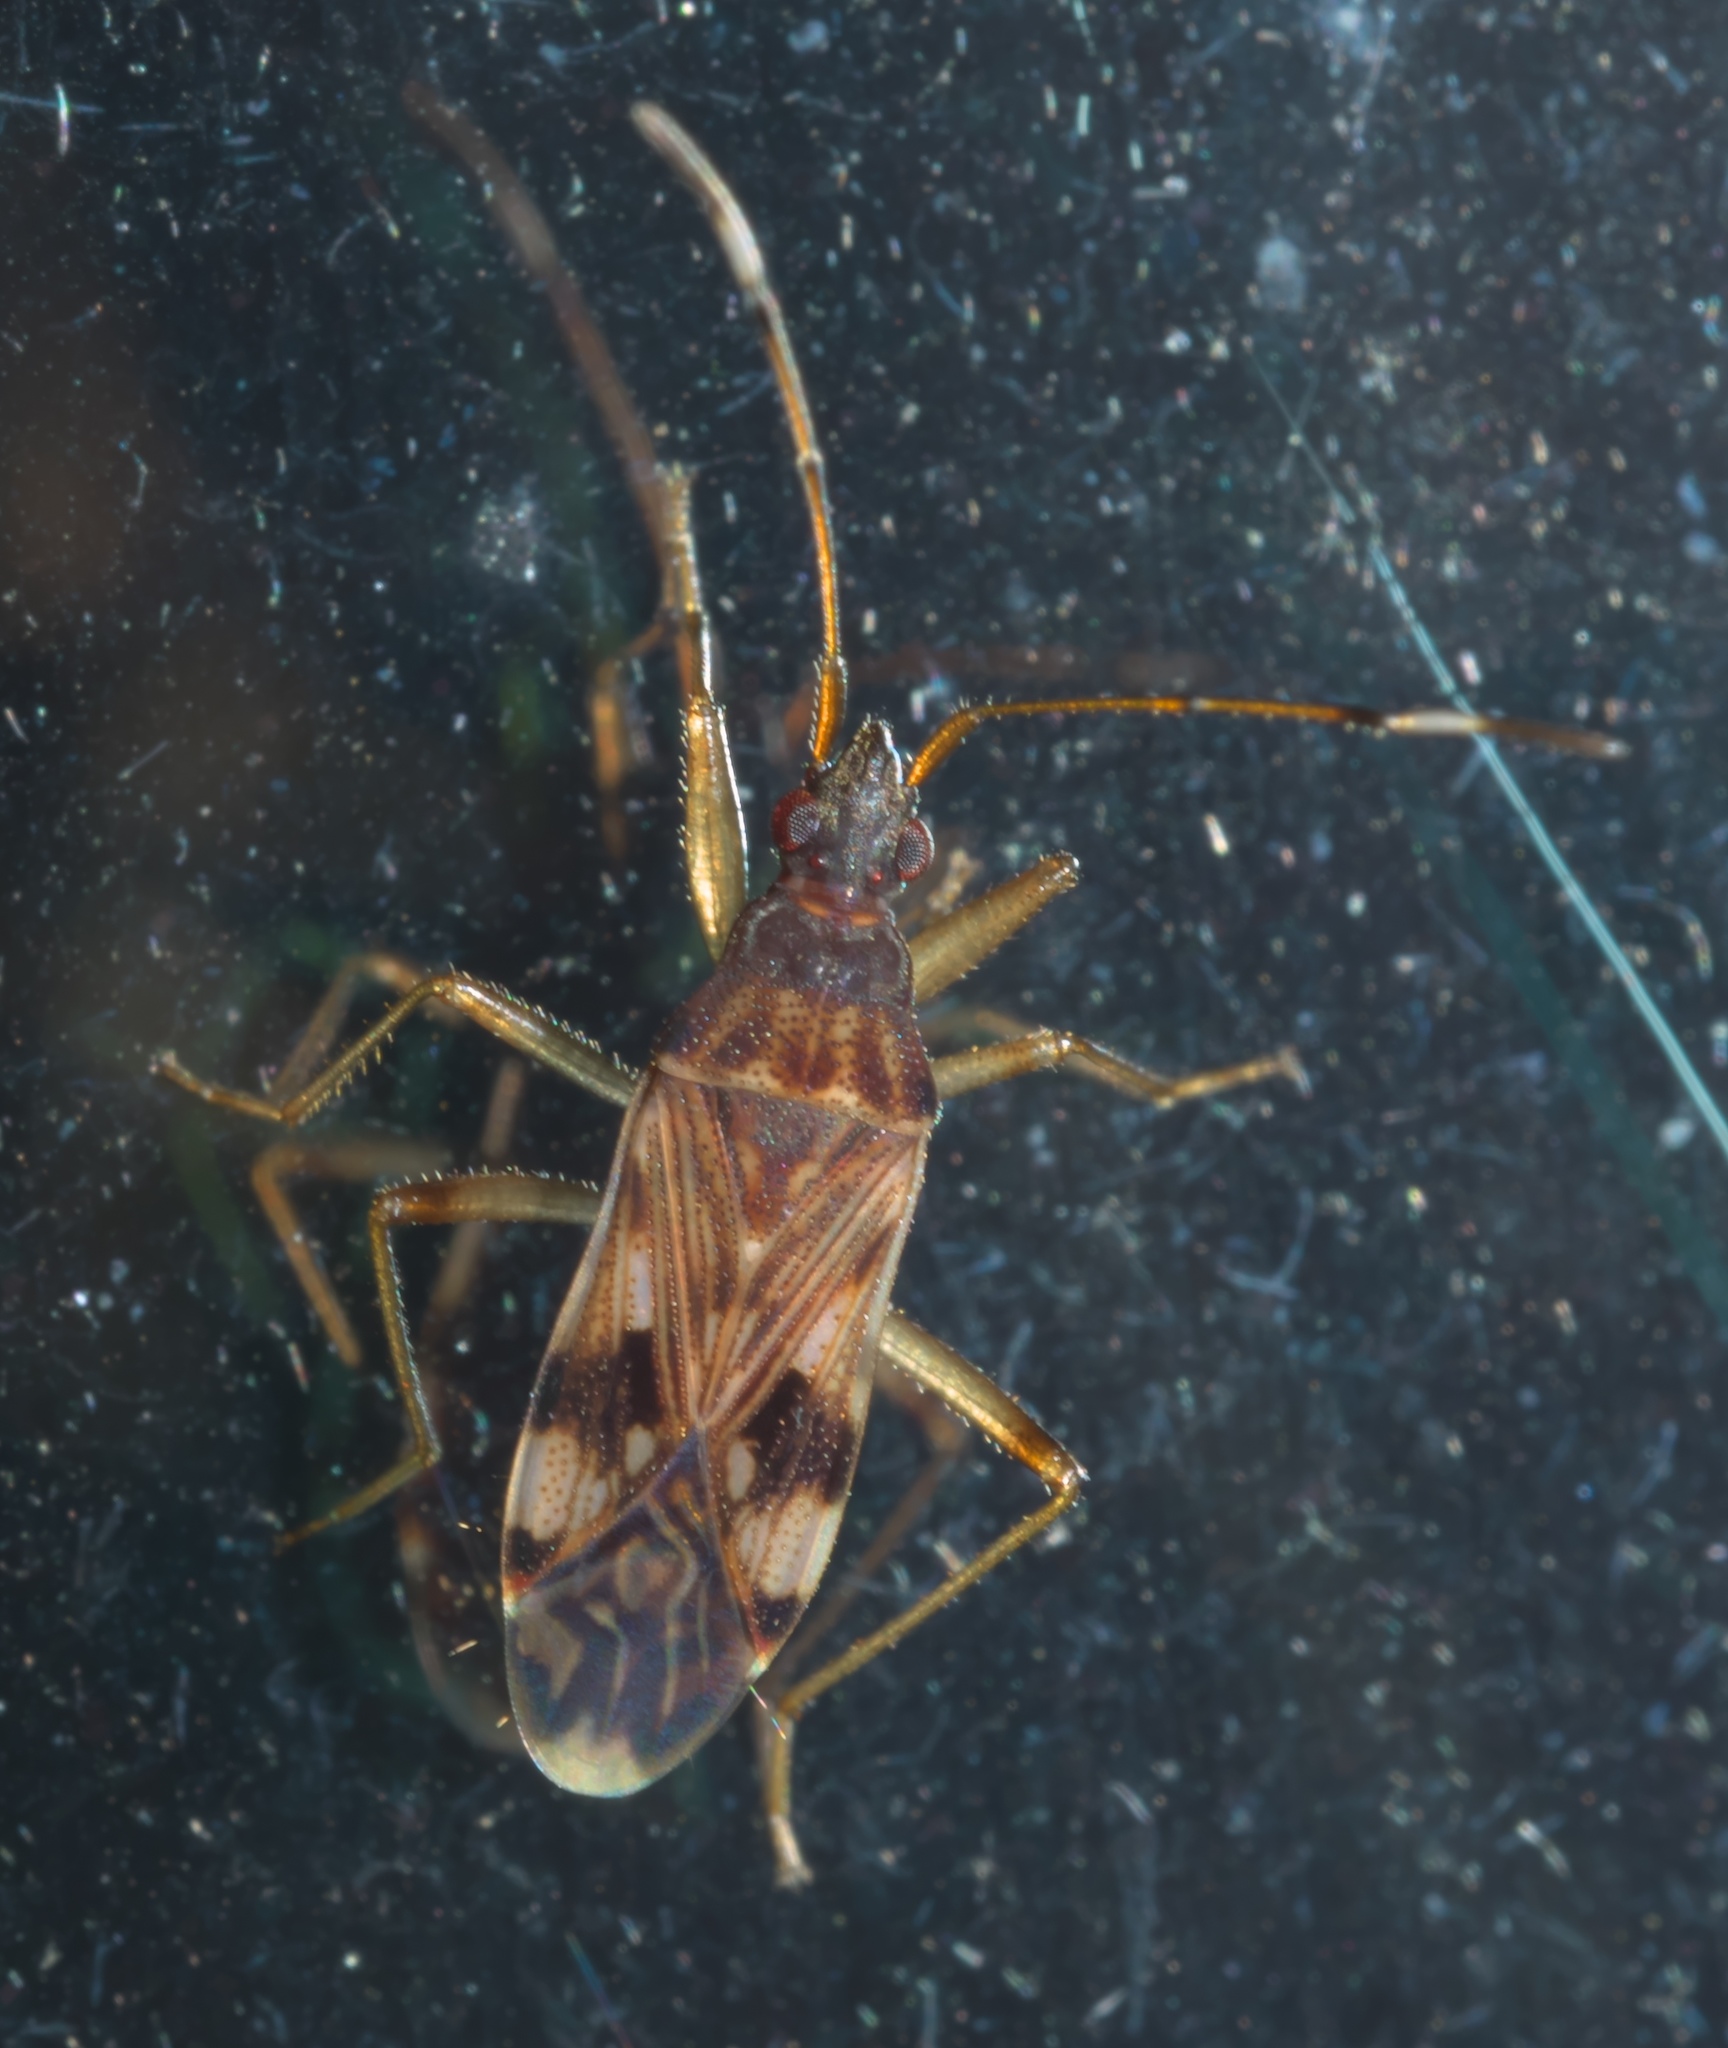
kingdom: Animalia
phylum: Arthropoda
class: Insecta
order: Hemiptera
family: Rhyparochromidae
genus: Ozophora
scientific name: Ozophora picturata
